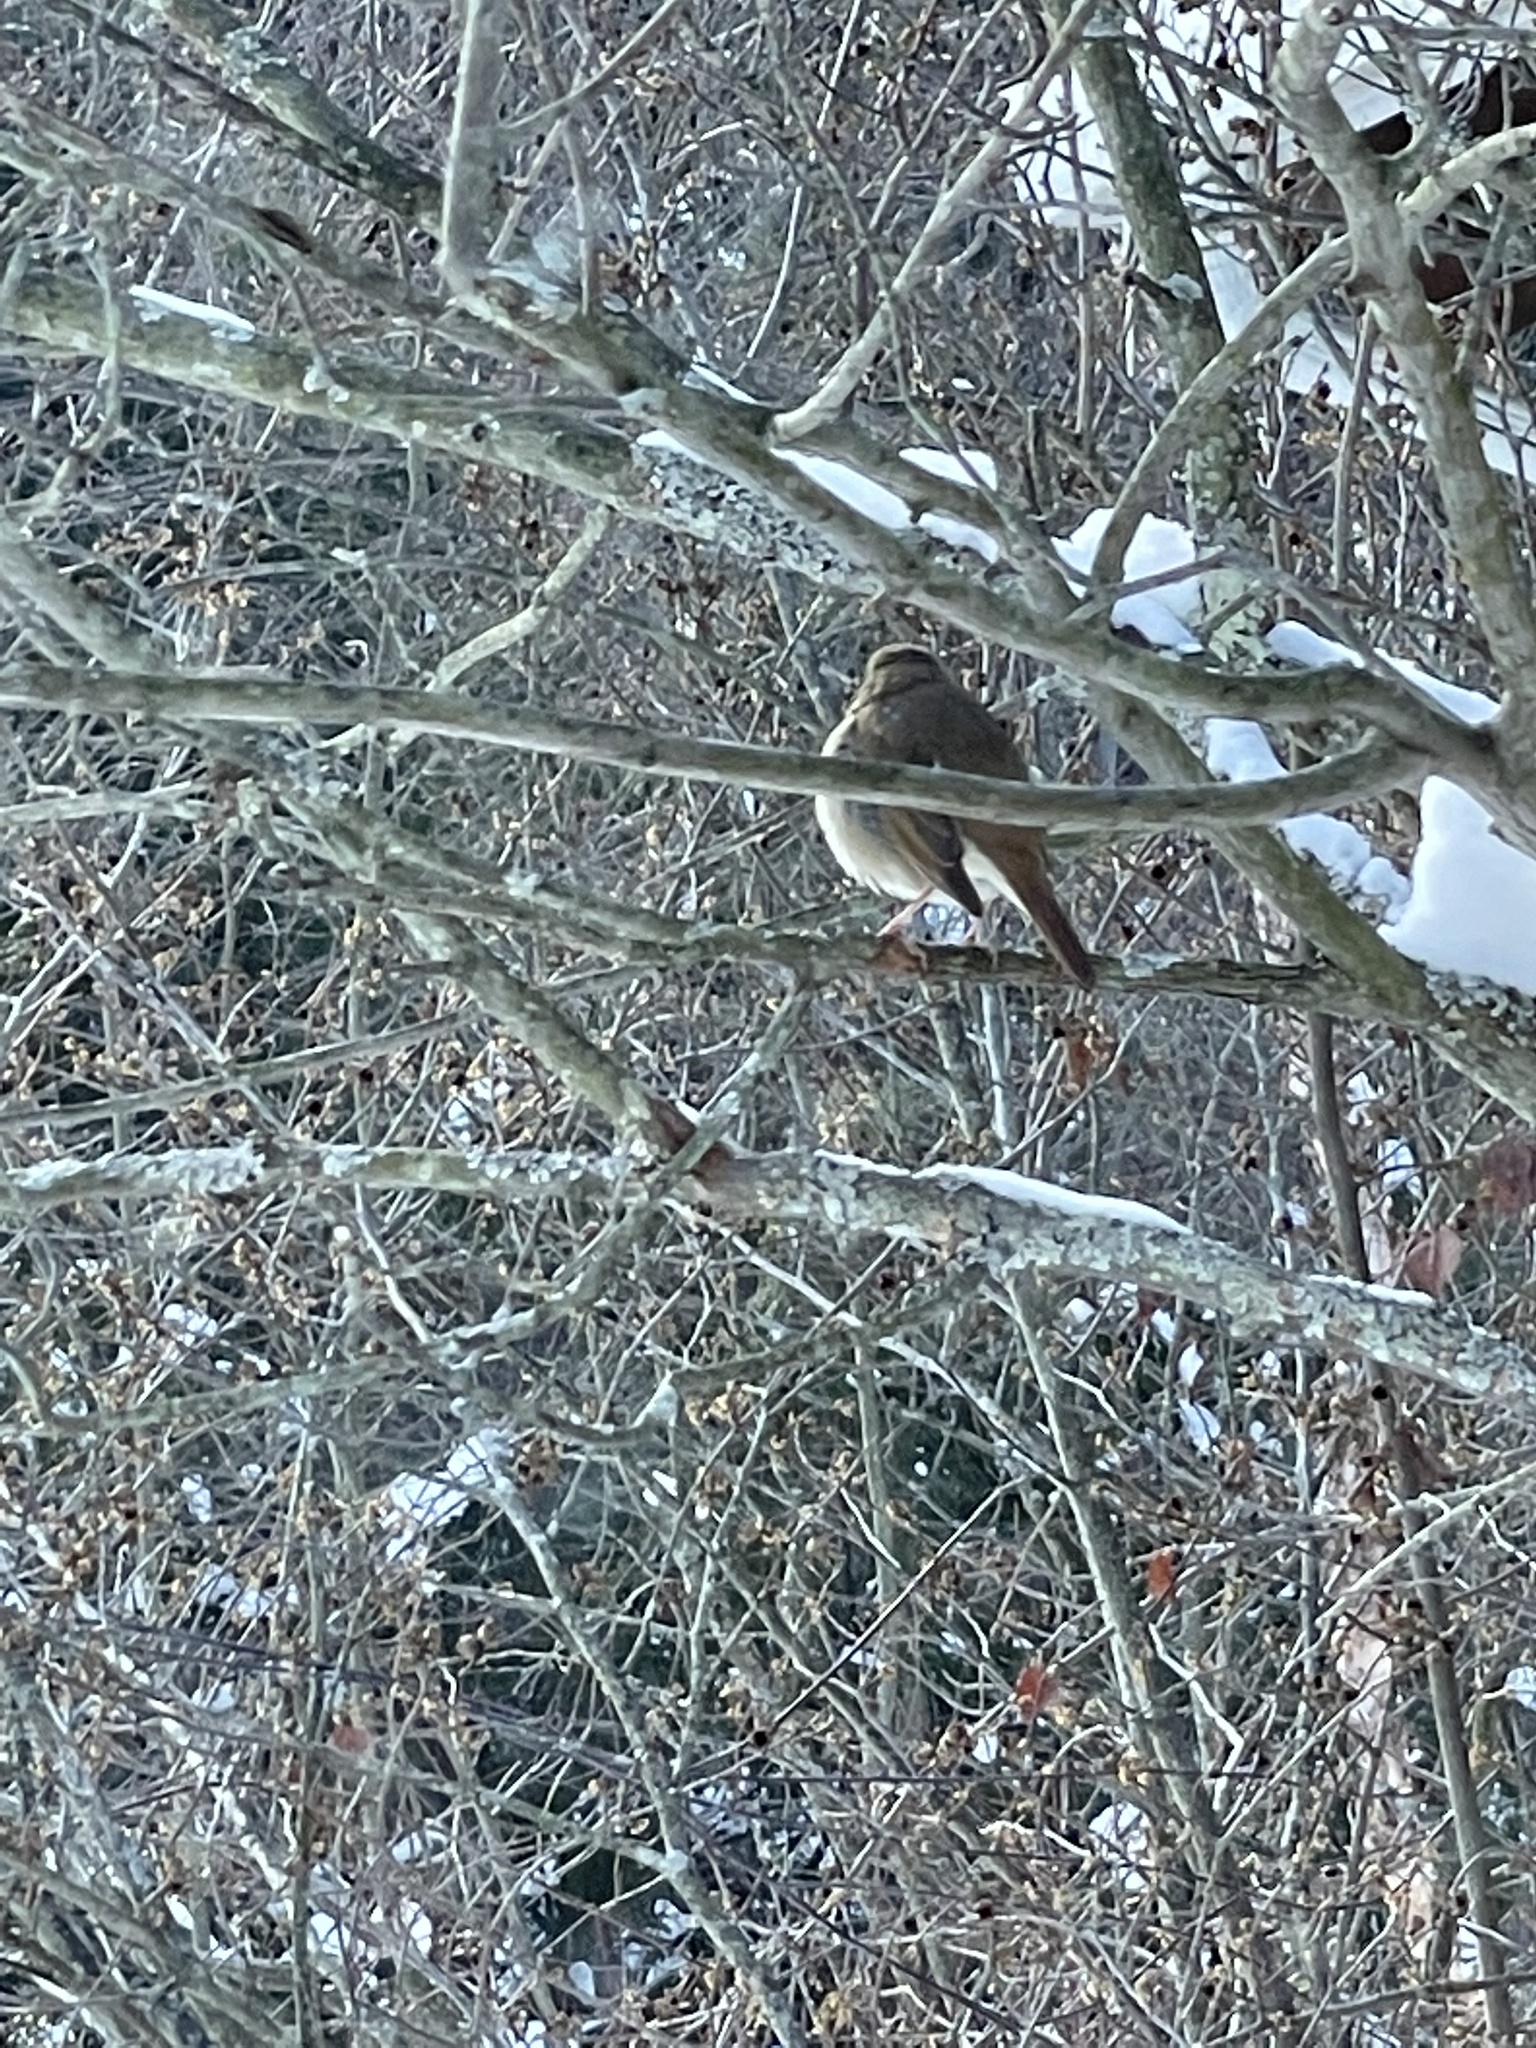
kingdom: Animalia
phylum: Chordata
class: Aves
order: Passeriformes
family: Turdidae
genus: Catharus
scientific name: Catharus guttatus
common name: Hermit thrush
